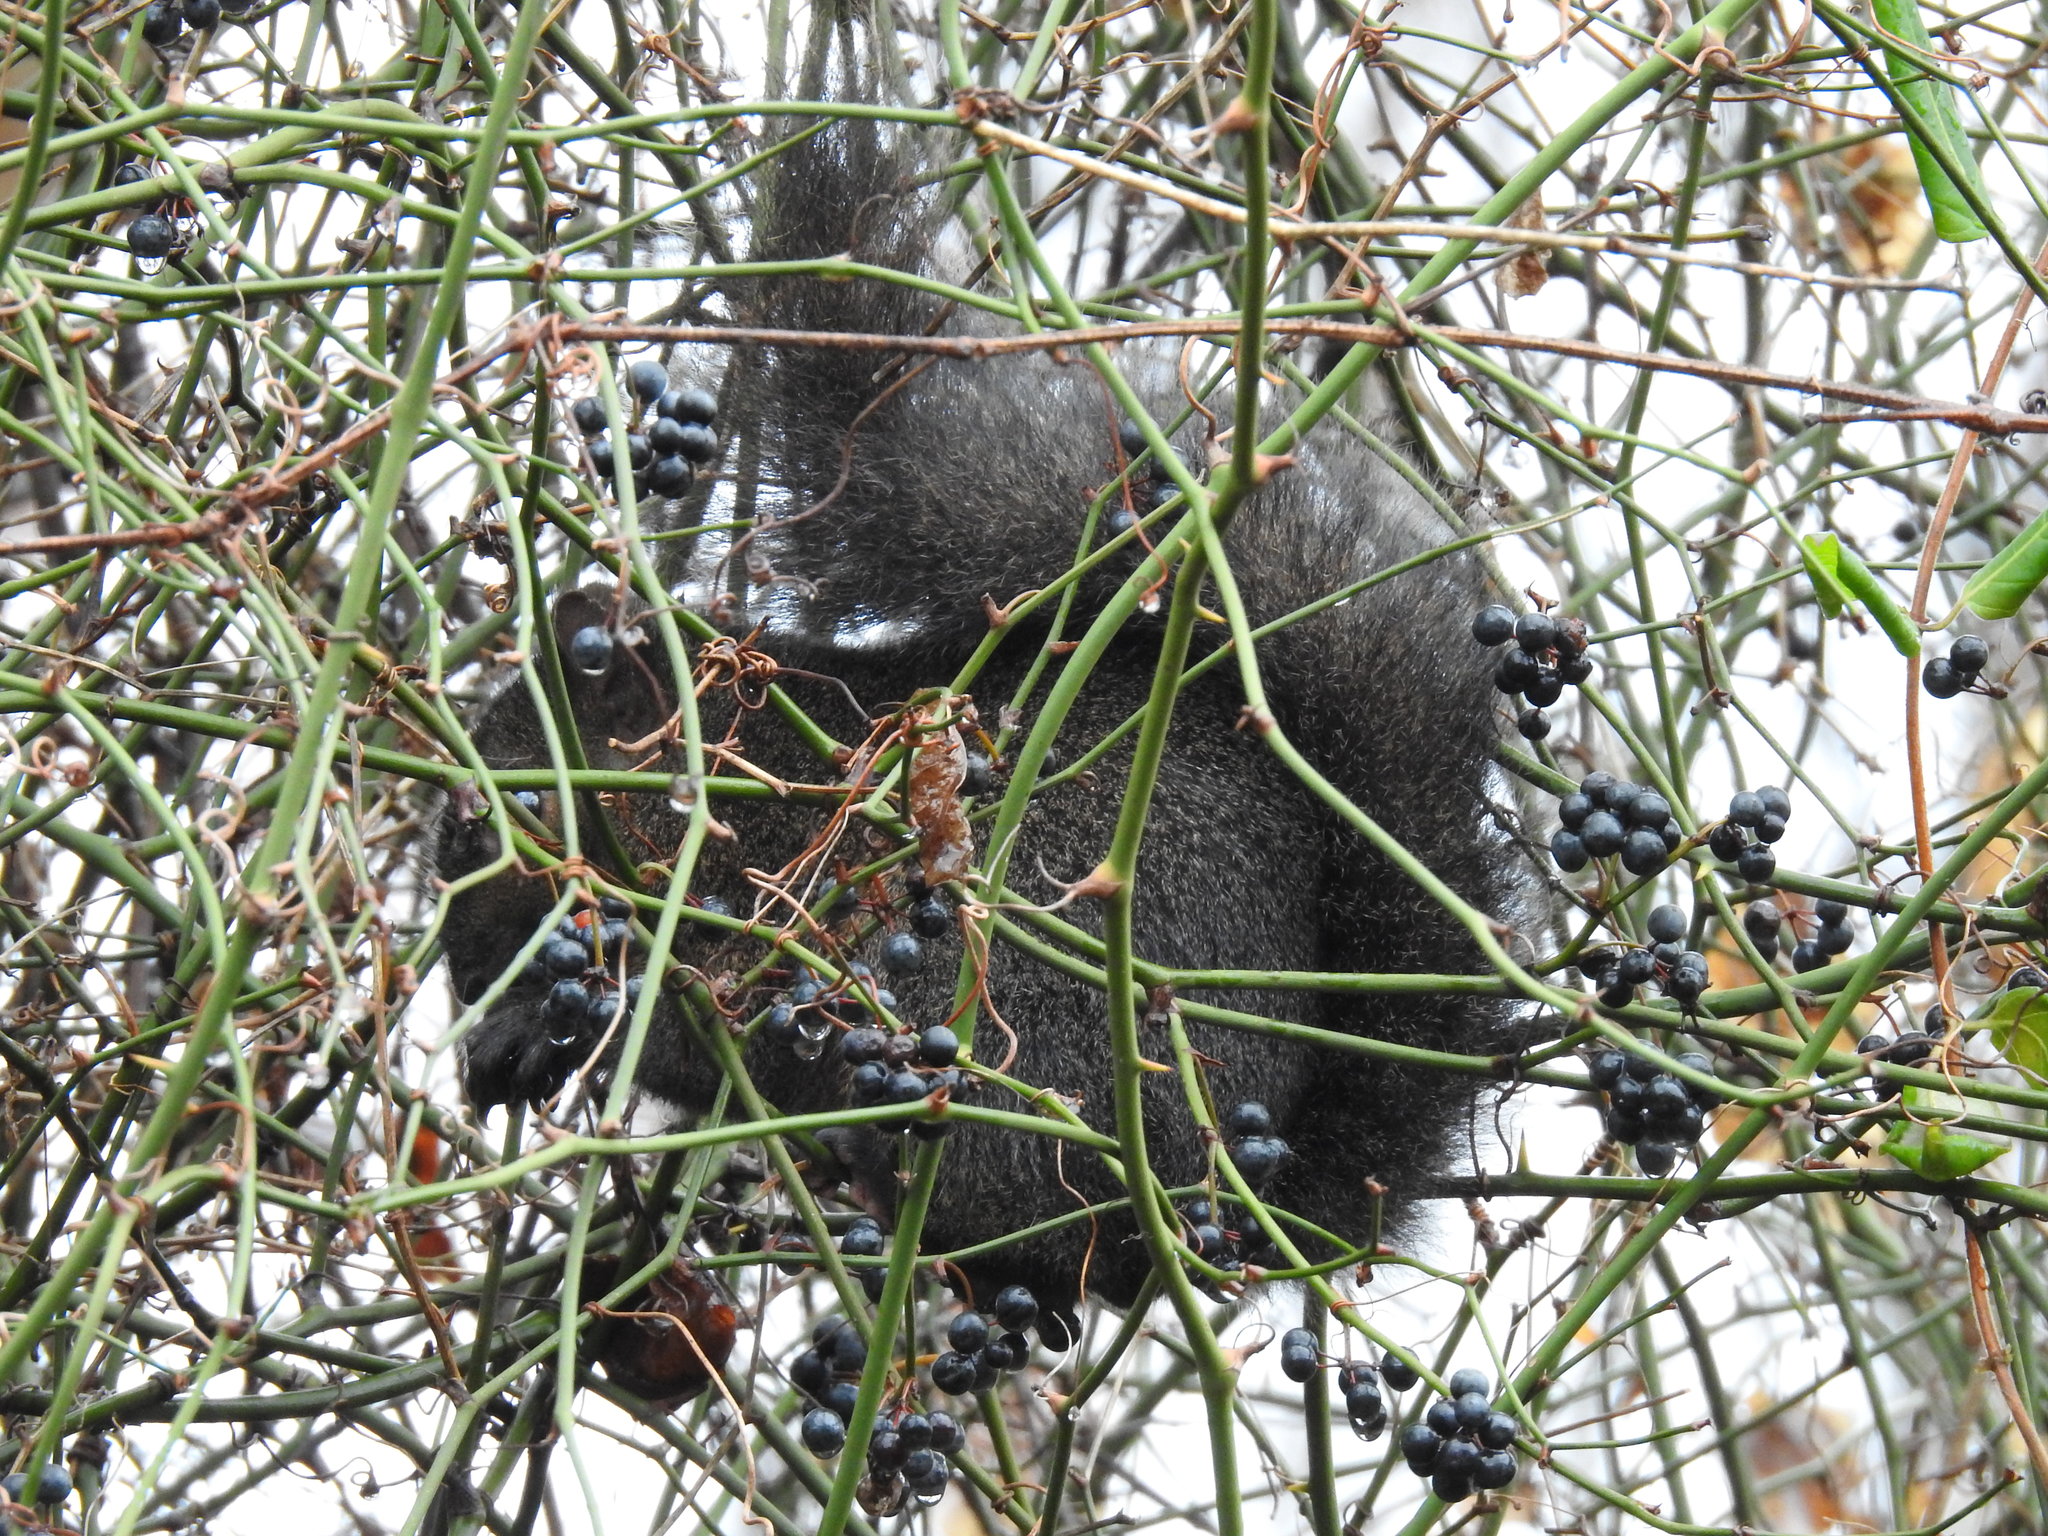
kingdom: Animalia
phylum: Chordata
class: Mammalia
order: Rodentia
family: Sciuridae
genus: Sciurus
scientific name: Sciurus carolinensis
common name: Eastern gray squirrel
